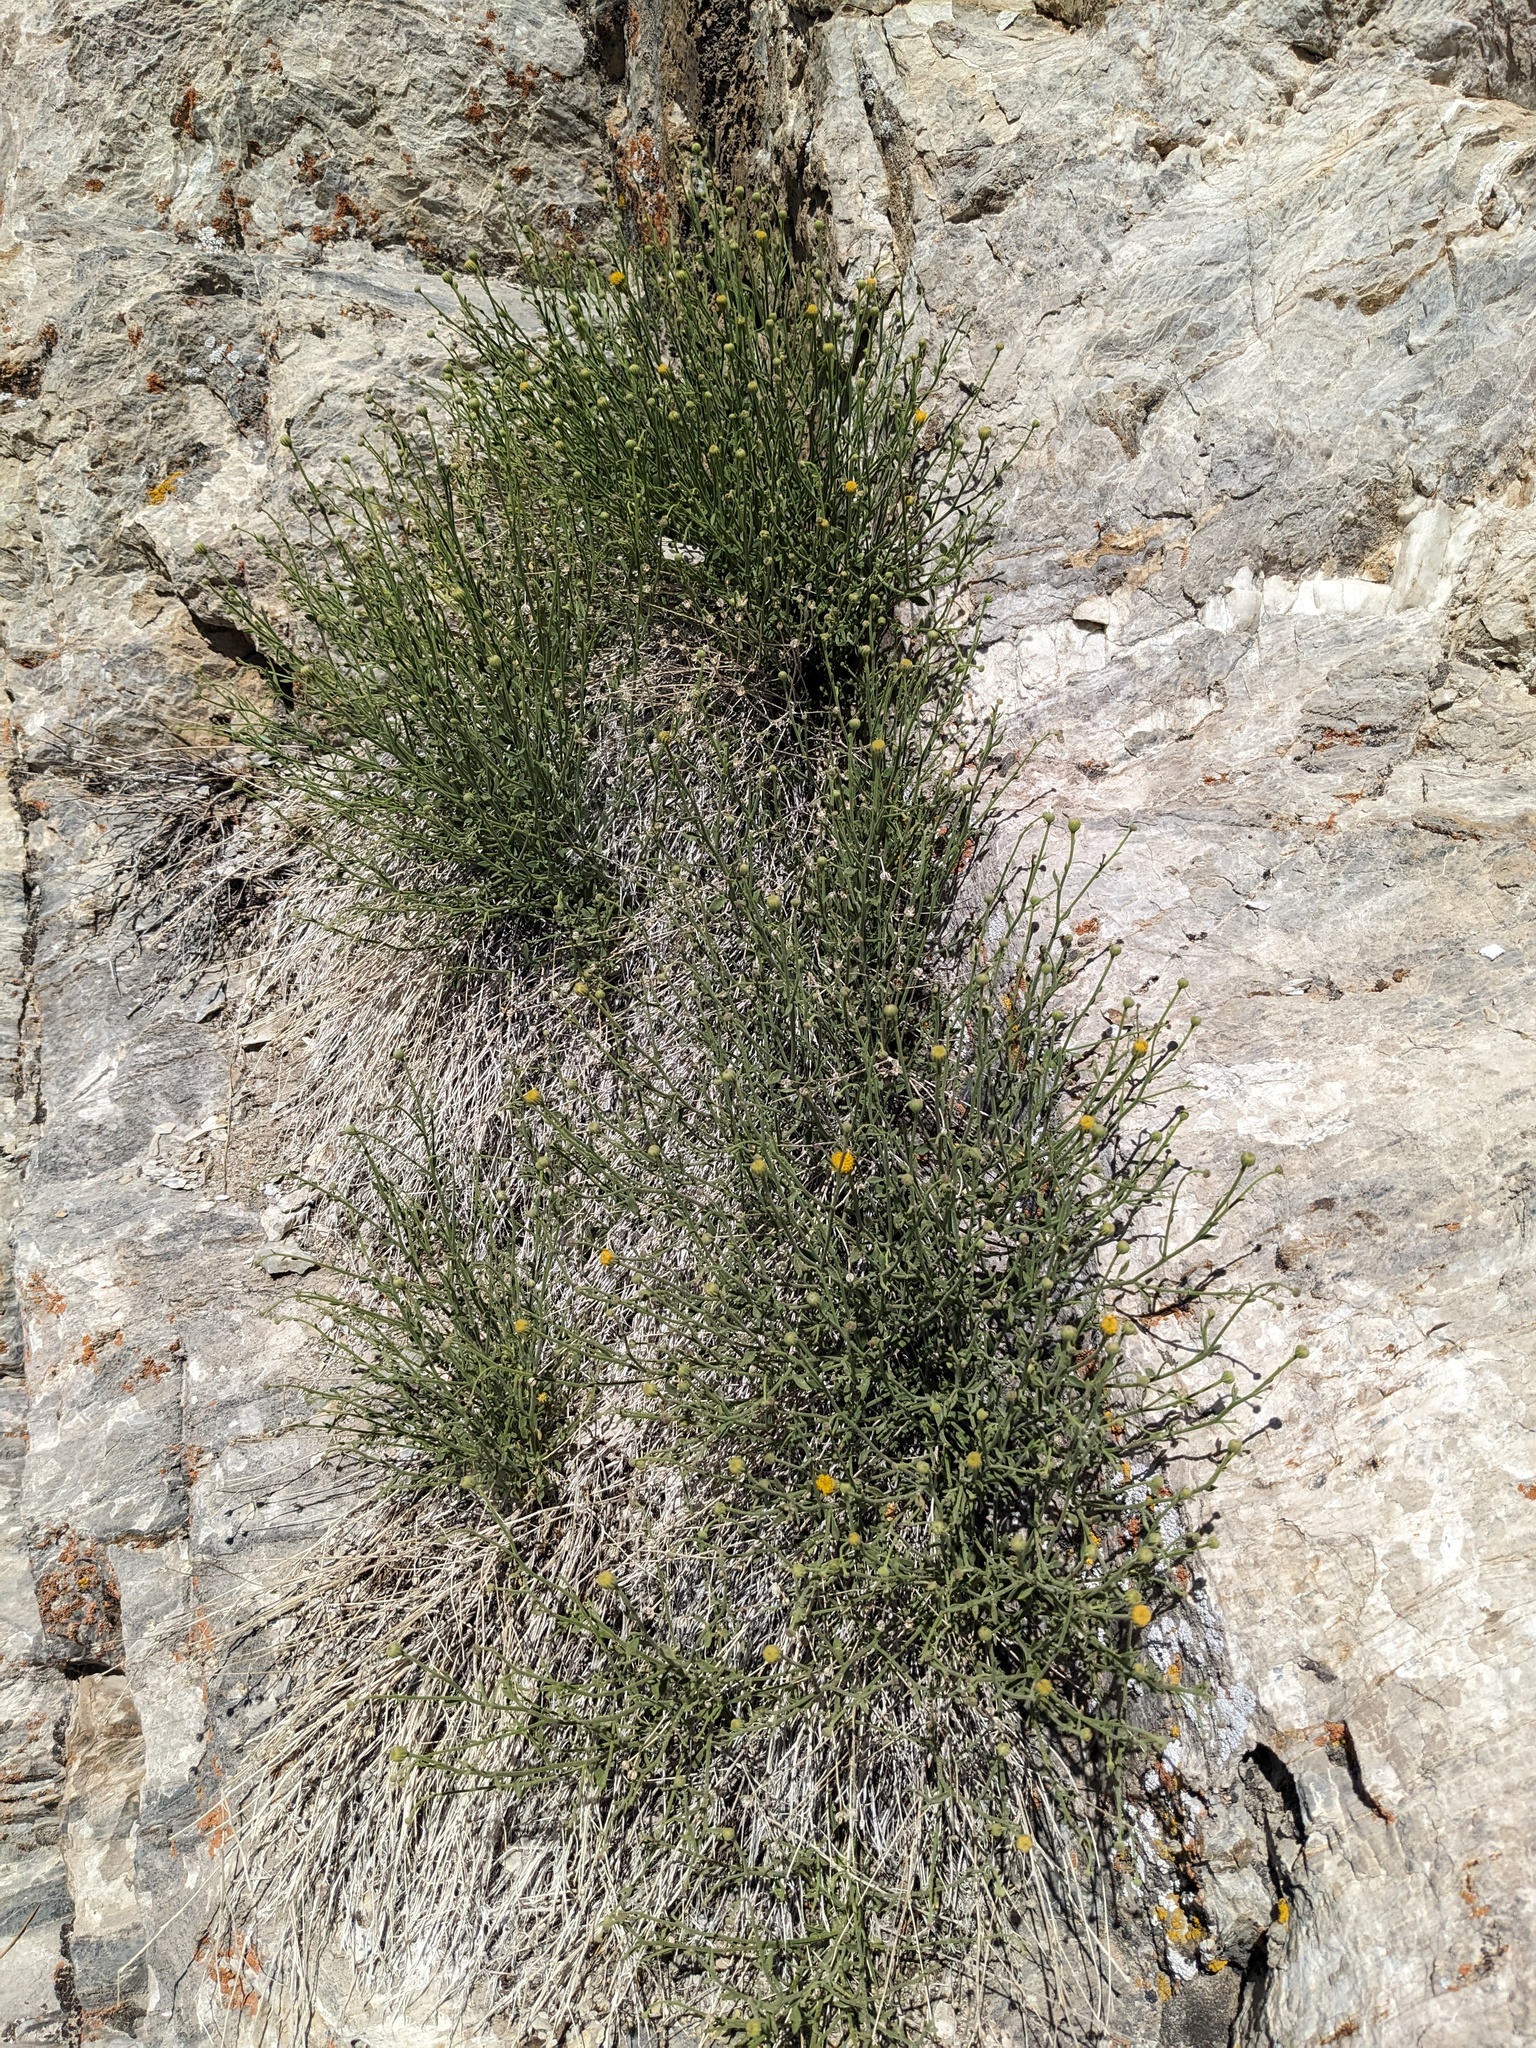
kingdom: Plantae
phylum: Tracheophyta
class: Magnoliopsida
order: Asterales
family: Asteraceae
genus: Laphamia
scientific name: Laphamia megalocephala
